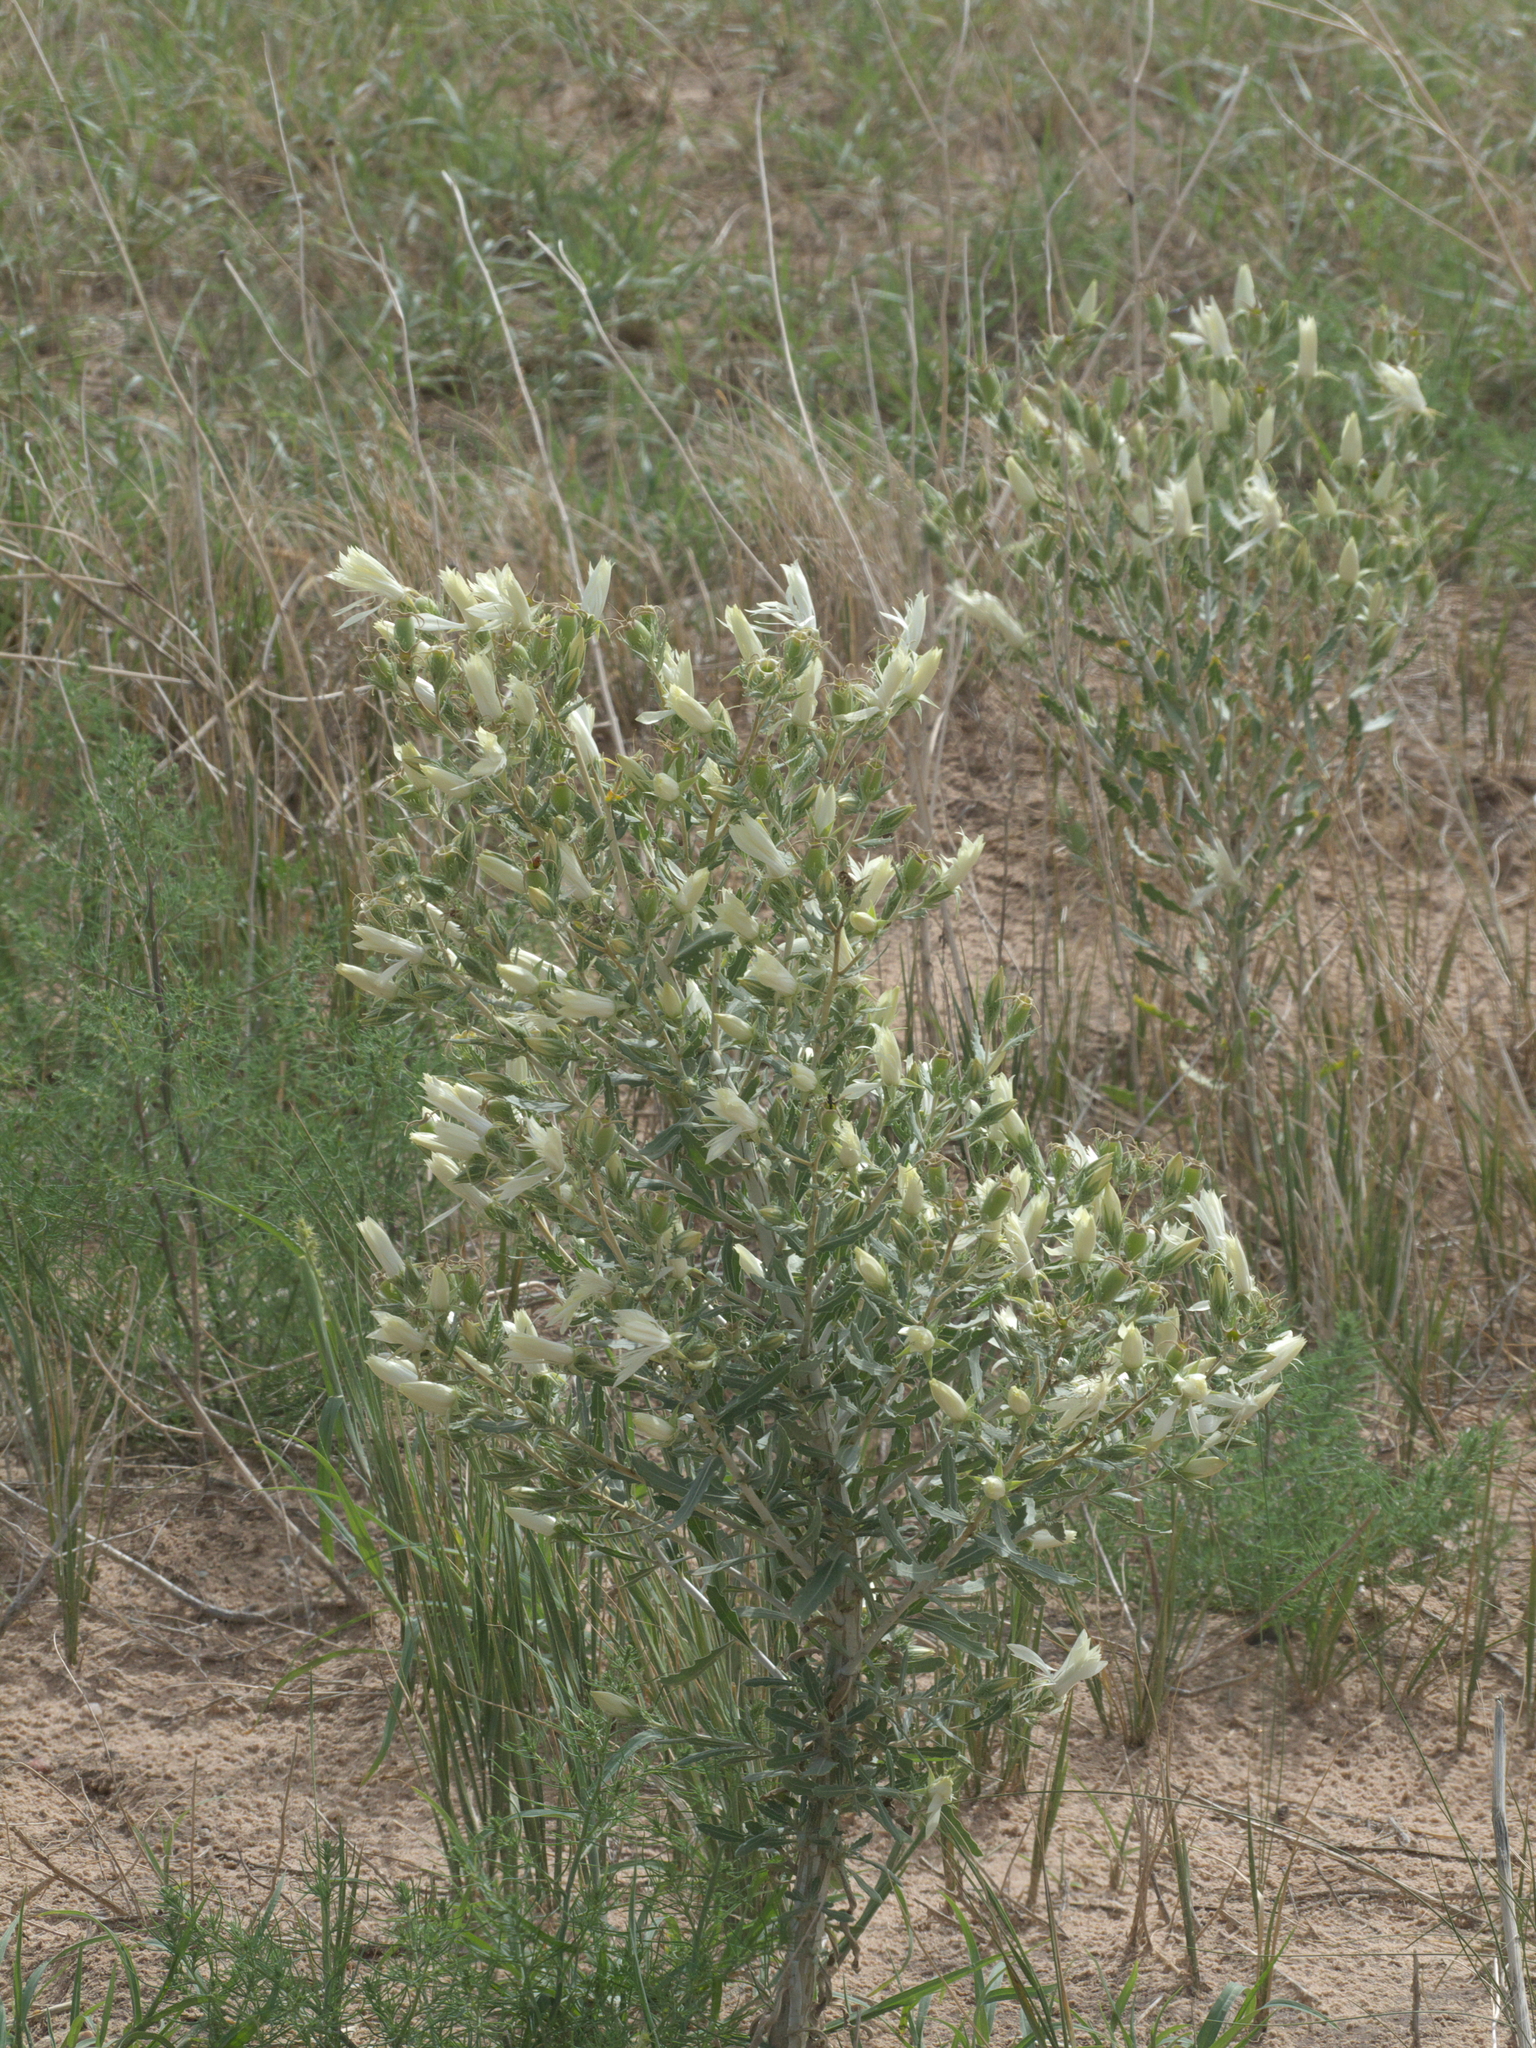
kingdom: Plantae
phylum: Tracheophyta
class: Magnoliopsida
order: Cornales
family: Loasaceae
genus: Mentzelia
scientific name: Mentzelia decapetala
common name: Gumbo-lily
